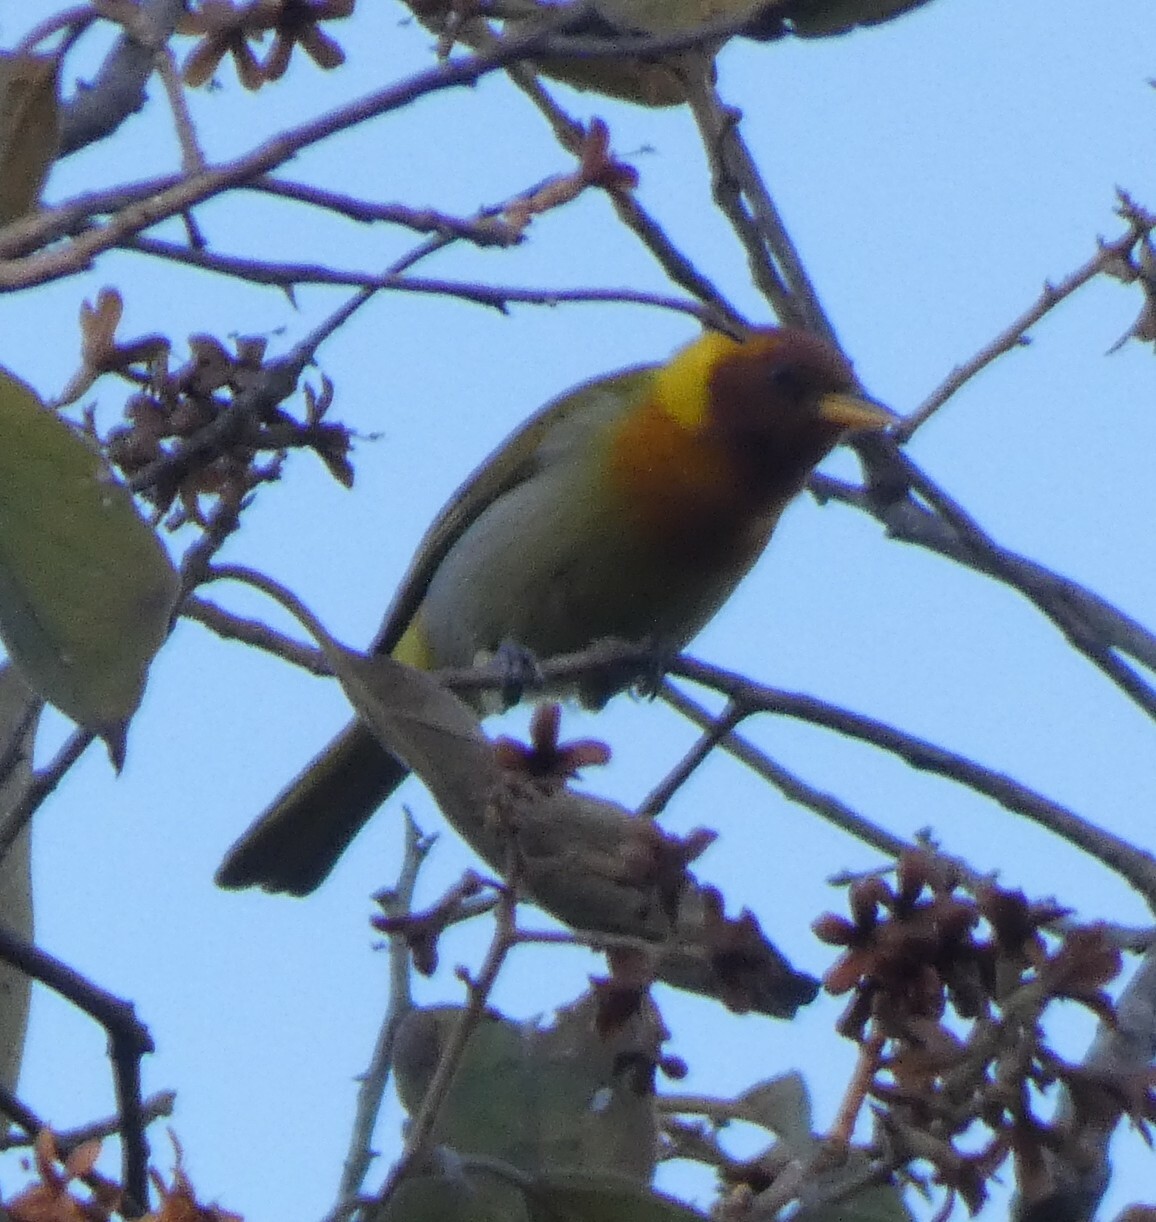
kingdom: Animalia
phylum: Chordata
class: Aves
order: Passeriformes
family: Thraupidae
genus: Hemithraupis
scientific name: Hemithraupis ruficapilla
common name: Rufous-headed tanager
